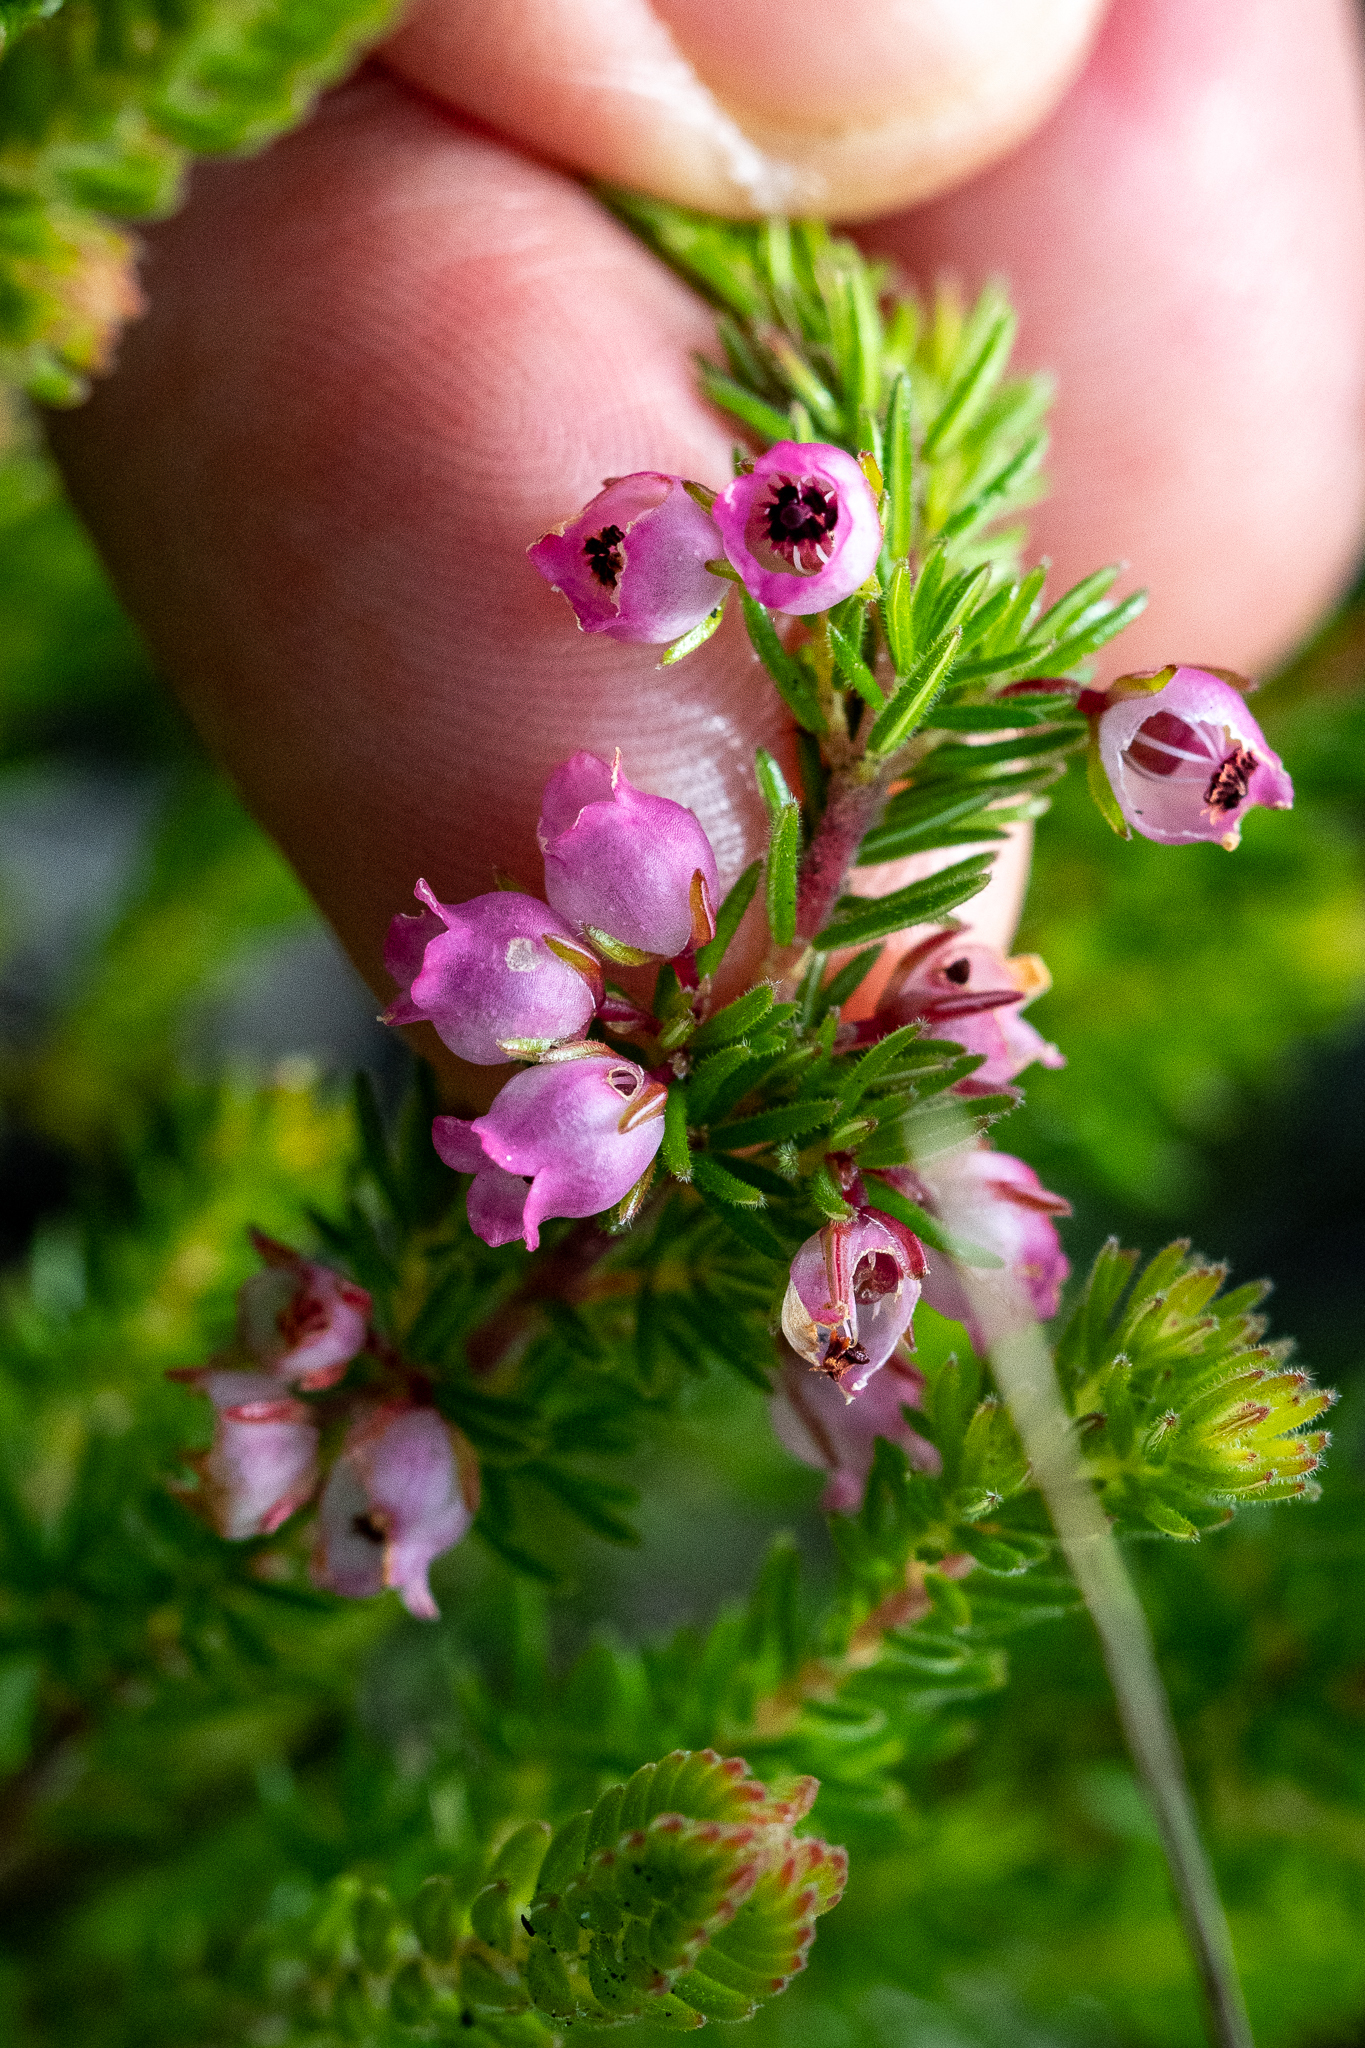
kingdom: Plantae
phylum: Tracheophyta
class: Magnoliopsida
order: Ericales
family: Ericaceae
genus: Erica
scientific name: Erica tenella
